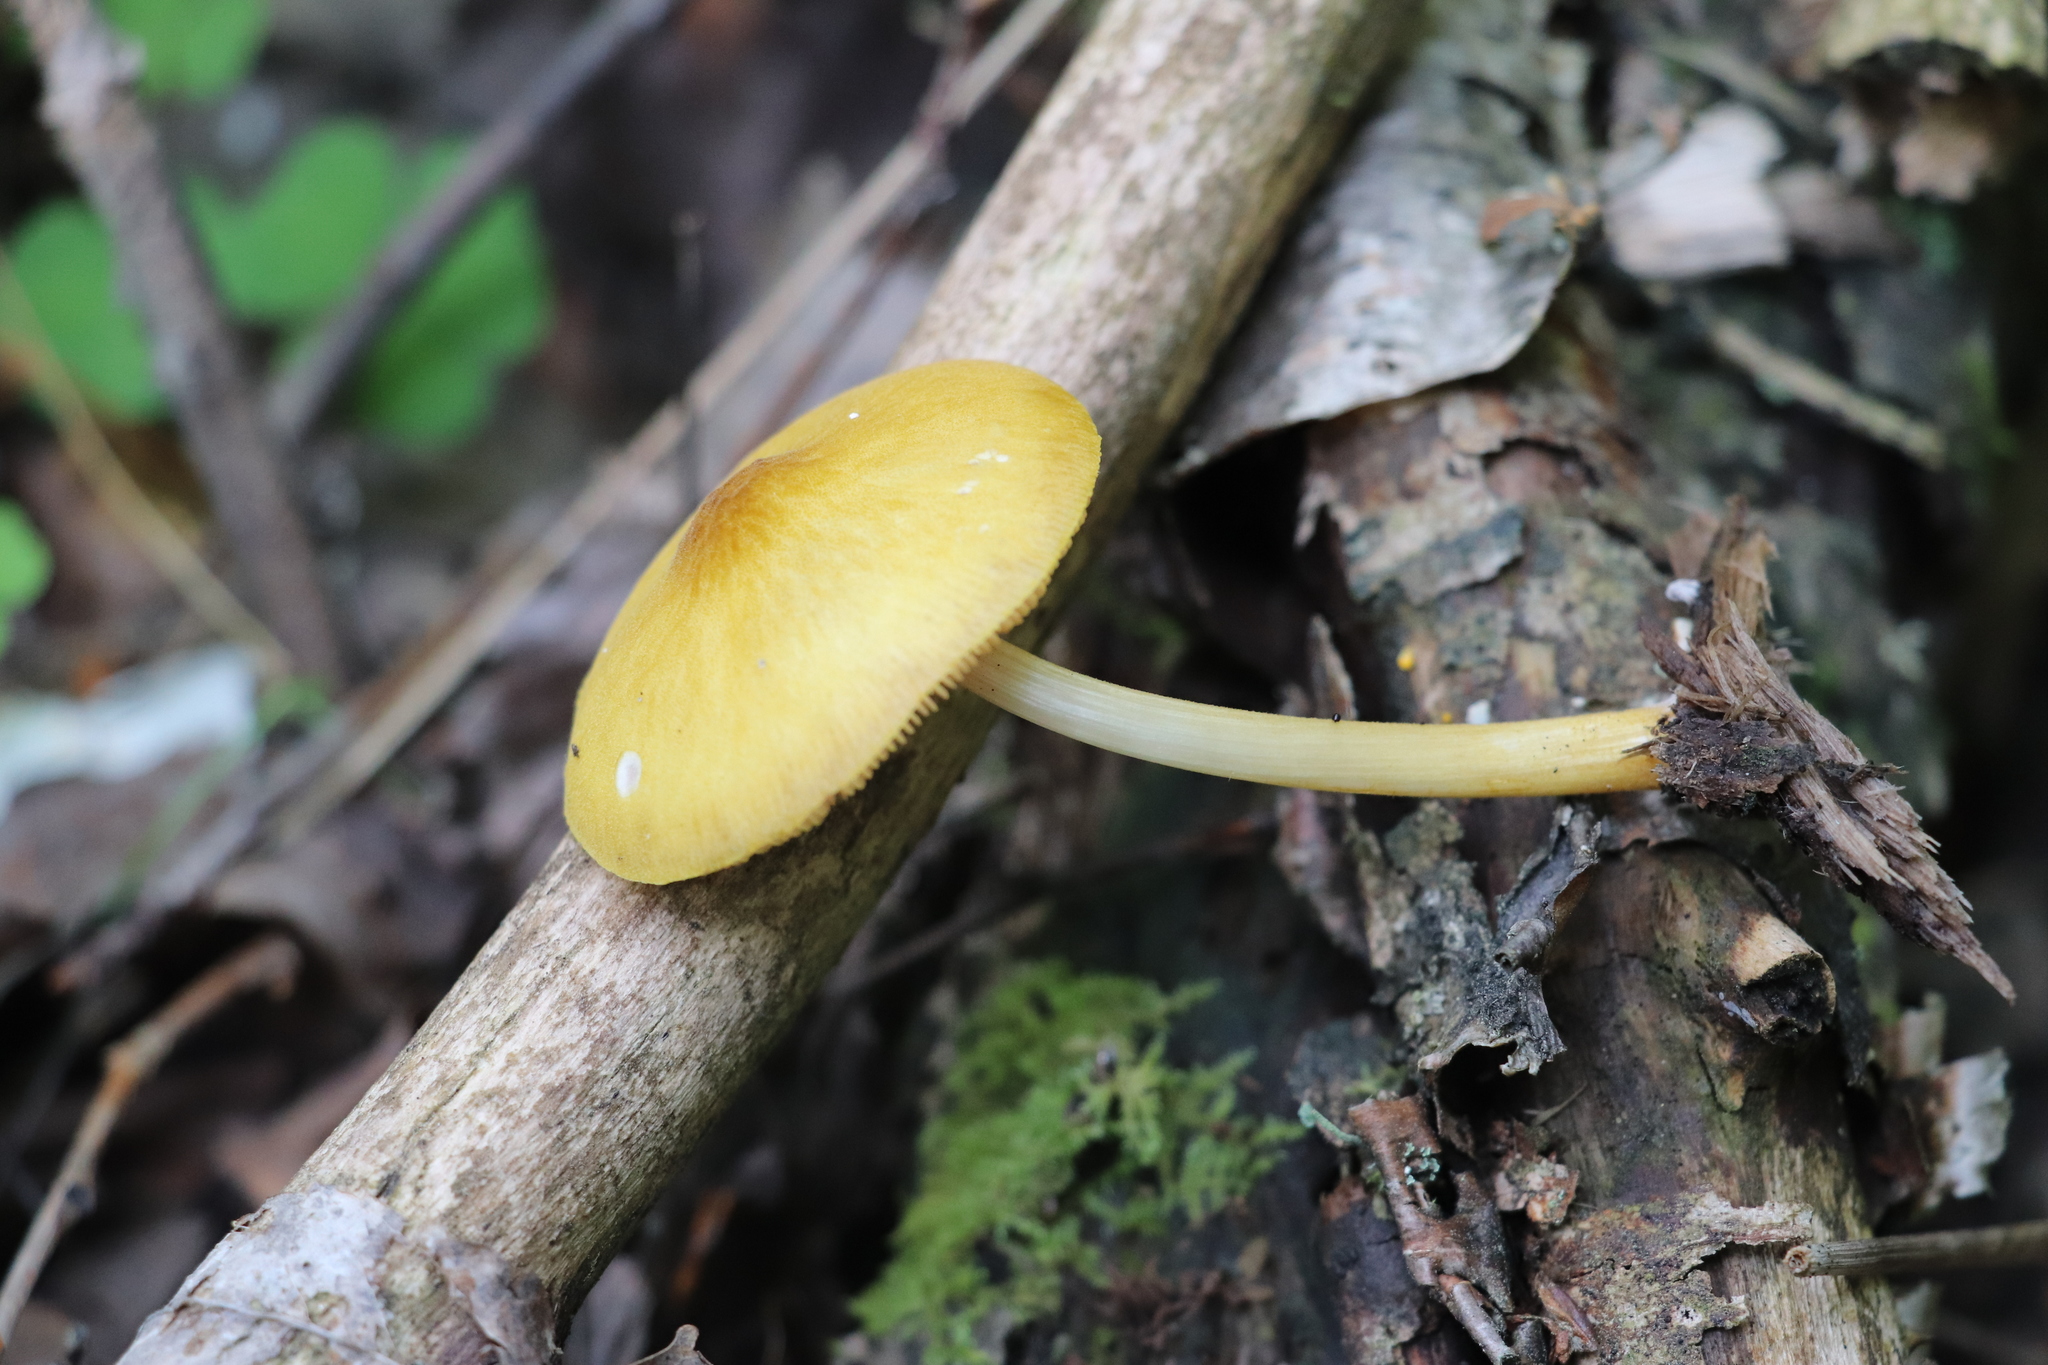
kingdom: Fungi
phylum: Basidiomycota
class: Agaricomycetes
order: Agaricales
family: Pluteaceae
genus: Pluteus
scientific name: Pluteus leoninus
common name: Lion shield
